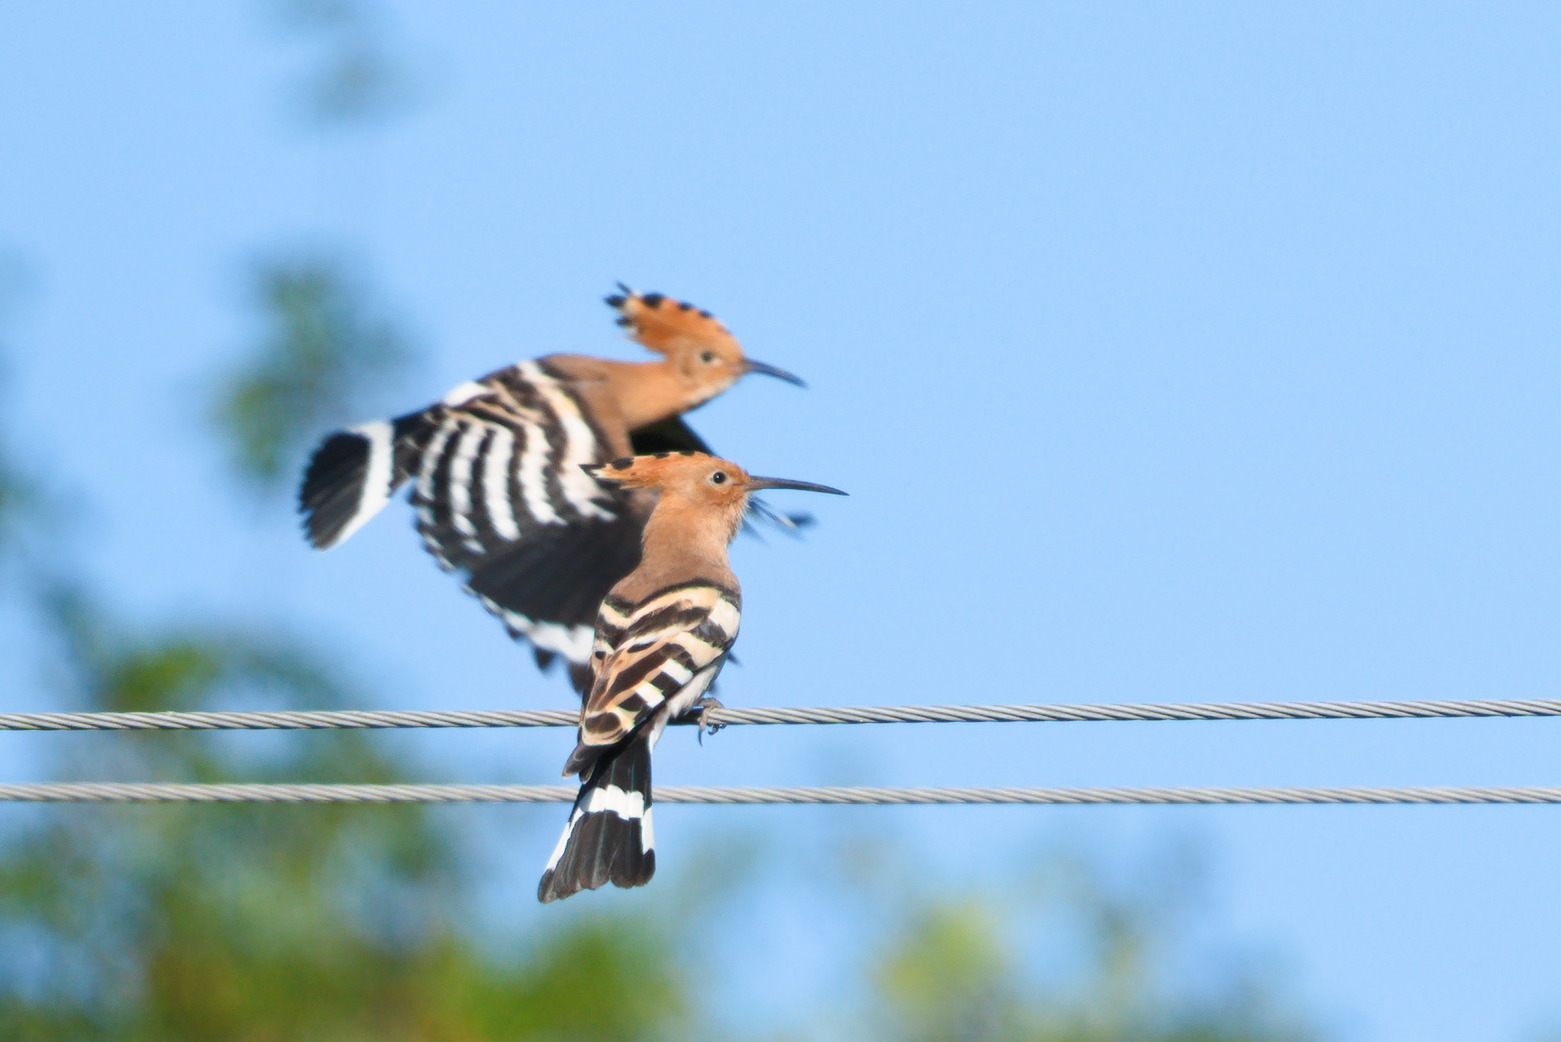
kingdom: Animalia
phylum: Chordata
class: Aves
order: Bucerotiformes
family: Upupidae
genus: Upupa
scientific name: Upupa epops
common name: Eurasian hoopoe
